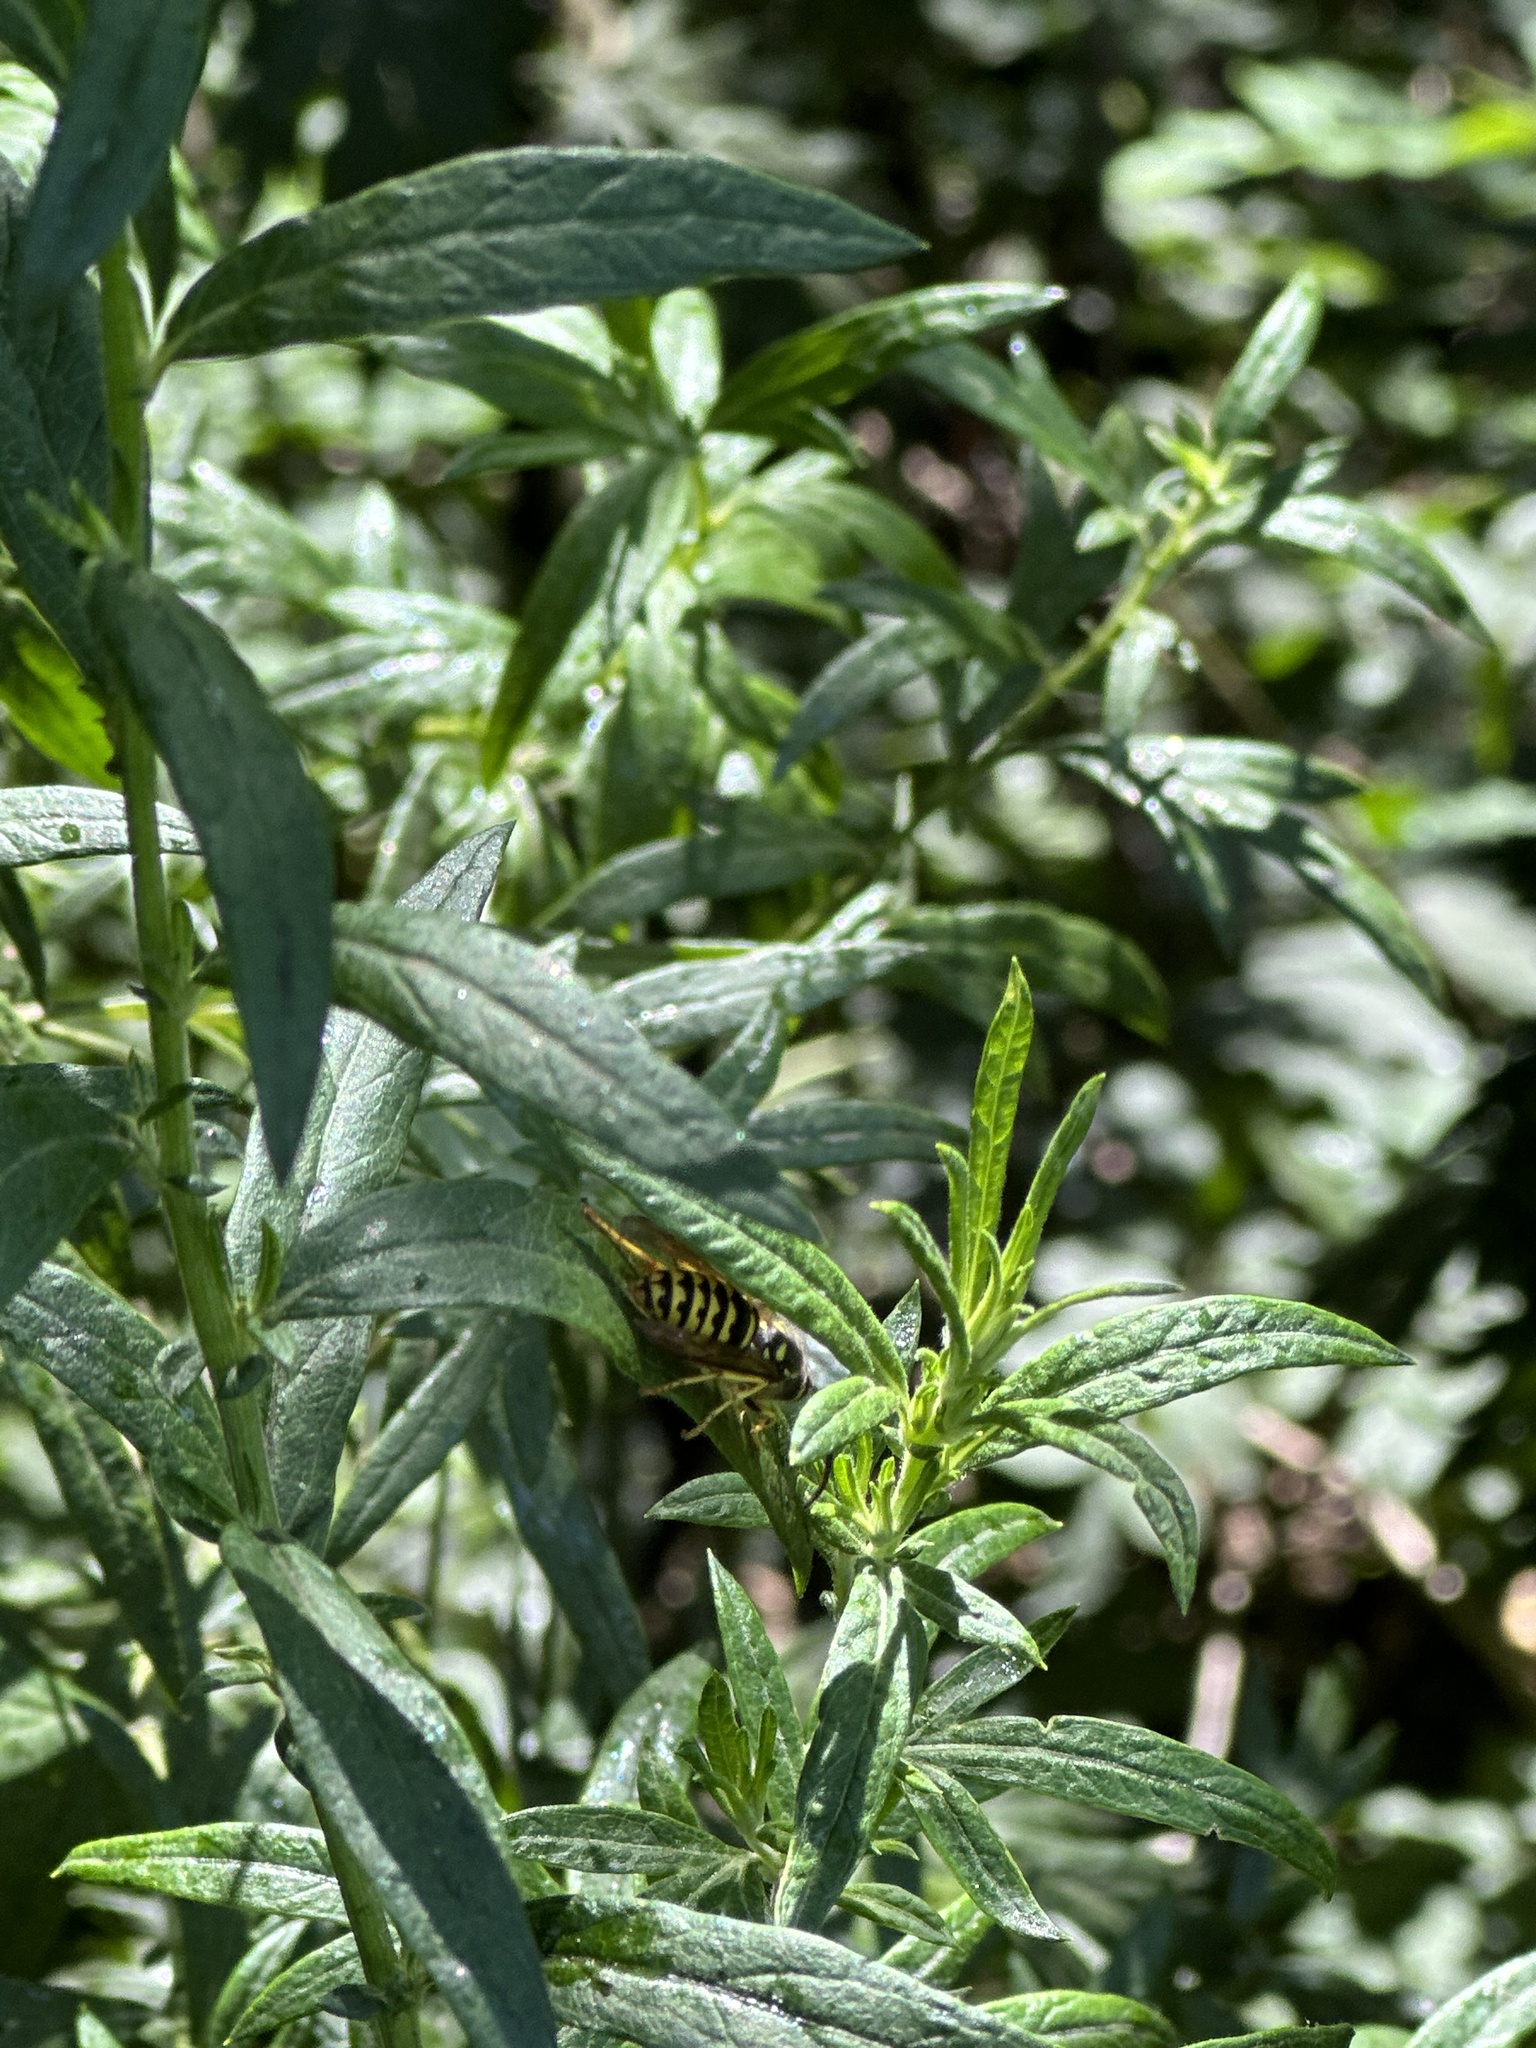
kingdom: Animalia
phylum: Arthropoda
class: Insecta
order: Hymenoptera
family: Vespidae
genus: Dolichovespula
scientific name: Dolichovespula arenaria
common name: Aerial yellowjacket
